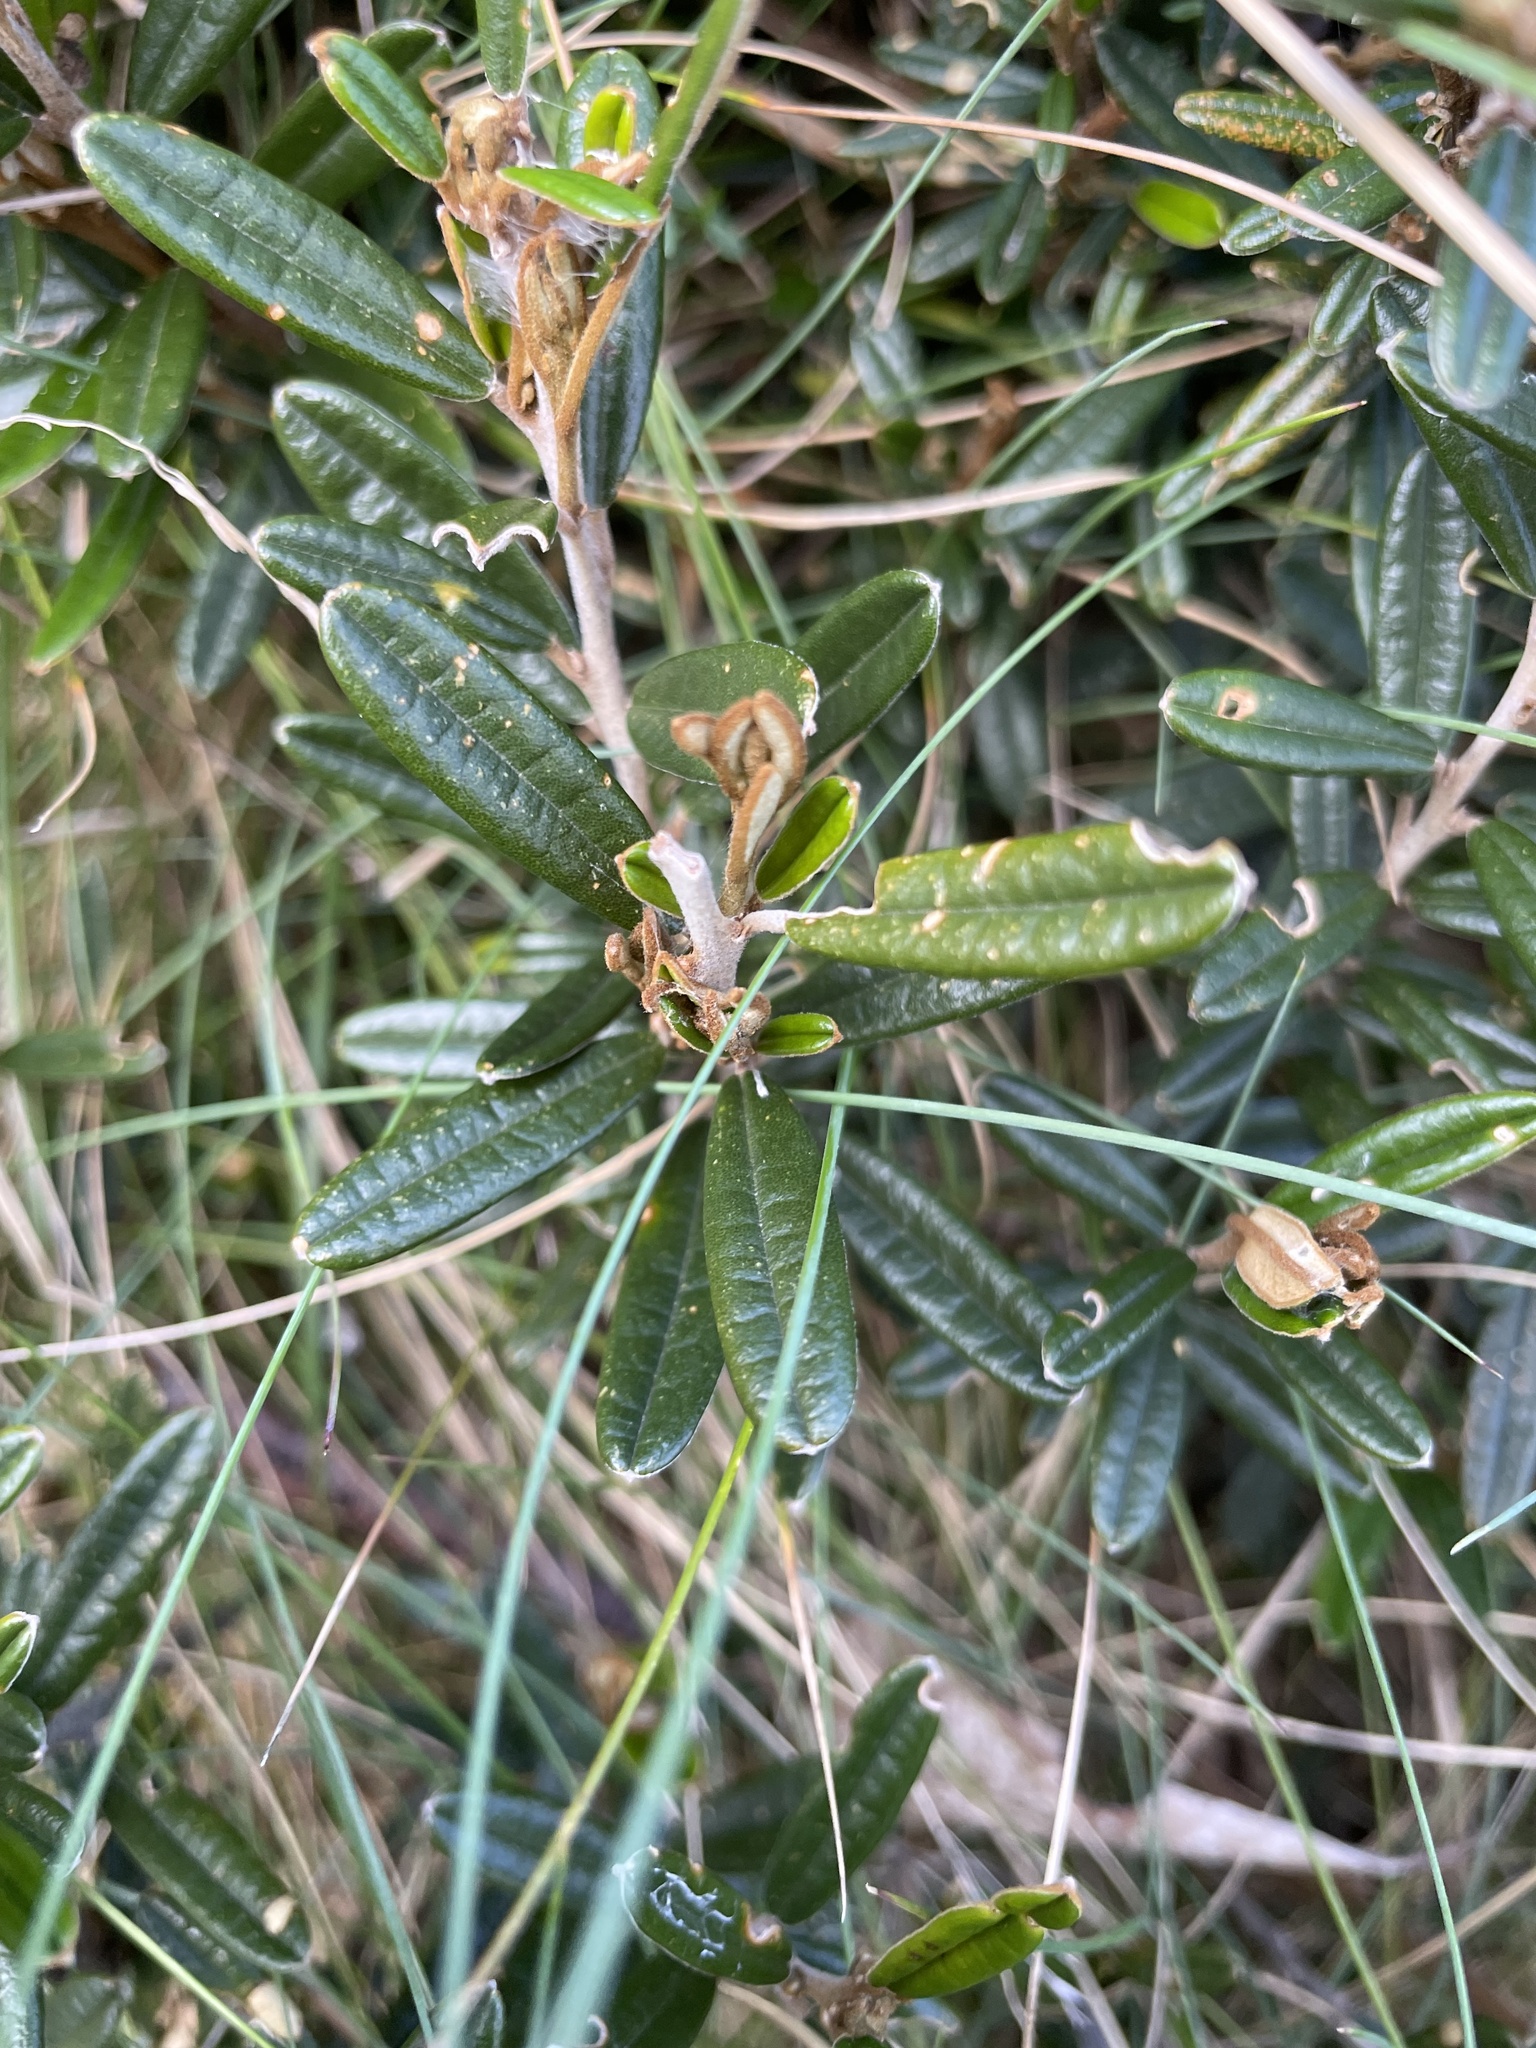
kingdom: Plantae
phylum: Tracheophyta
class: Magnoliopsida
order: Fabales
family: Fabaceae
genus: Hovea
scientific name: Hovea montana
